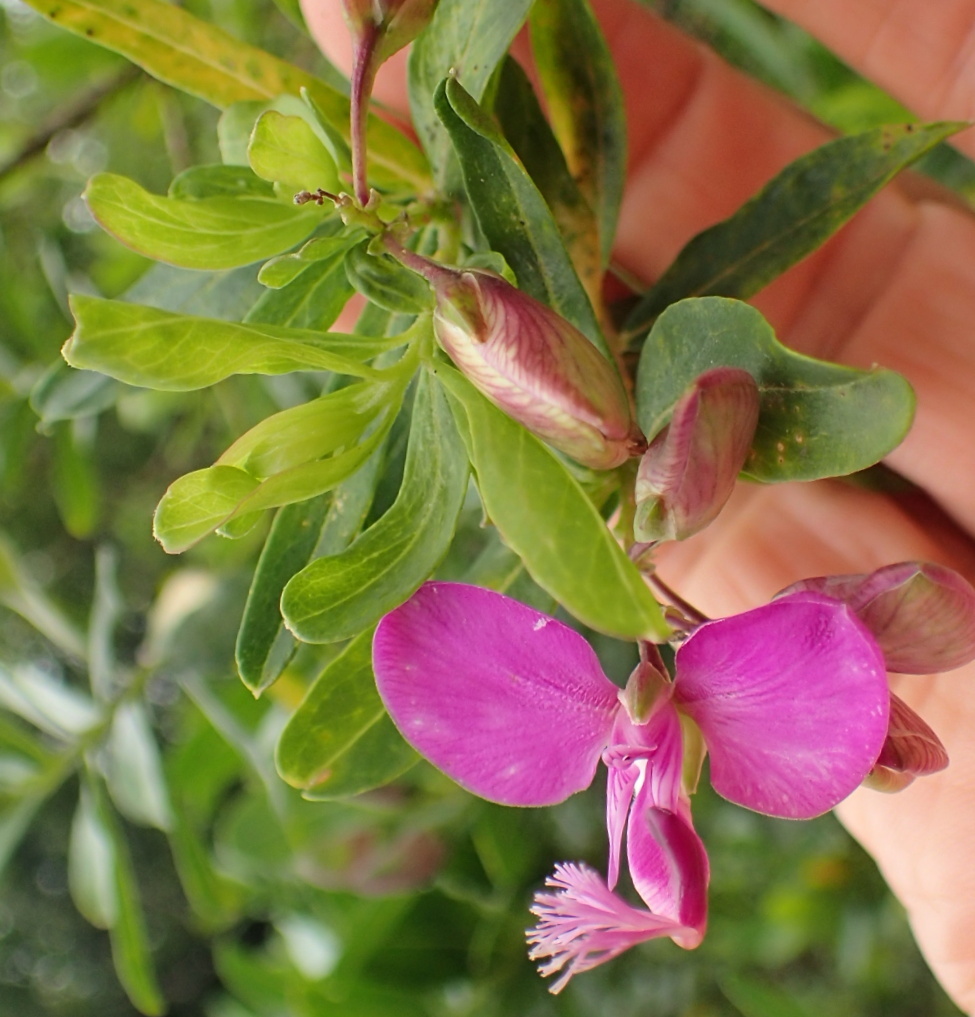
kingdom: Plantae
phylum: Tracheophyta
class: Magnoliopsida
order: Fabales
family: Polygalaceae
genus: Polygala
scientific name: Polygala myrtifolia
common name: Myrtle-leaf milkwort
